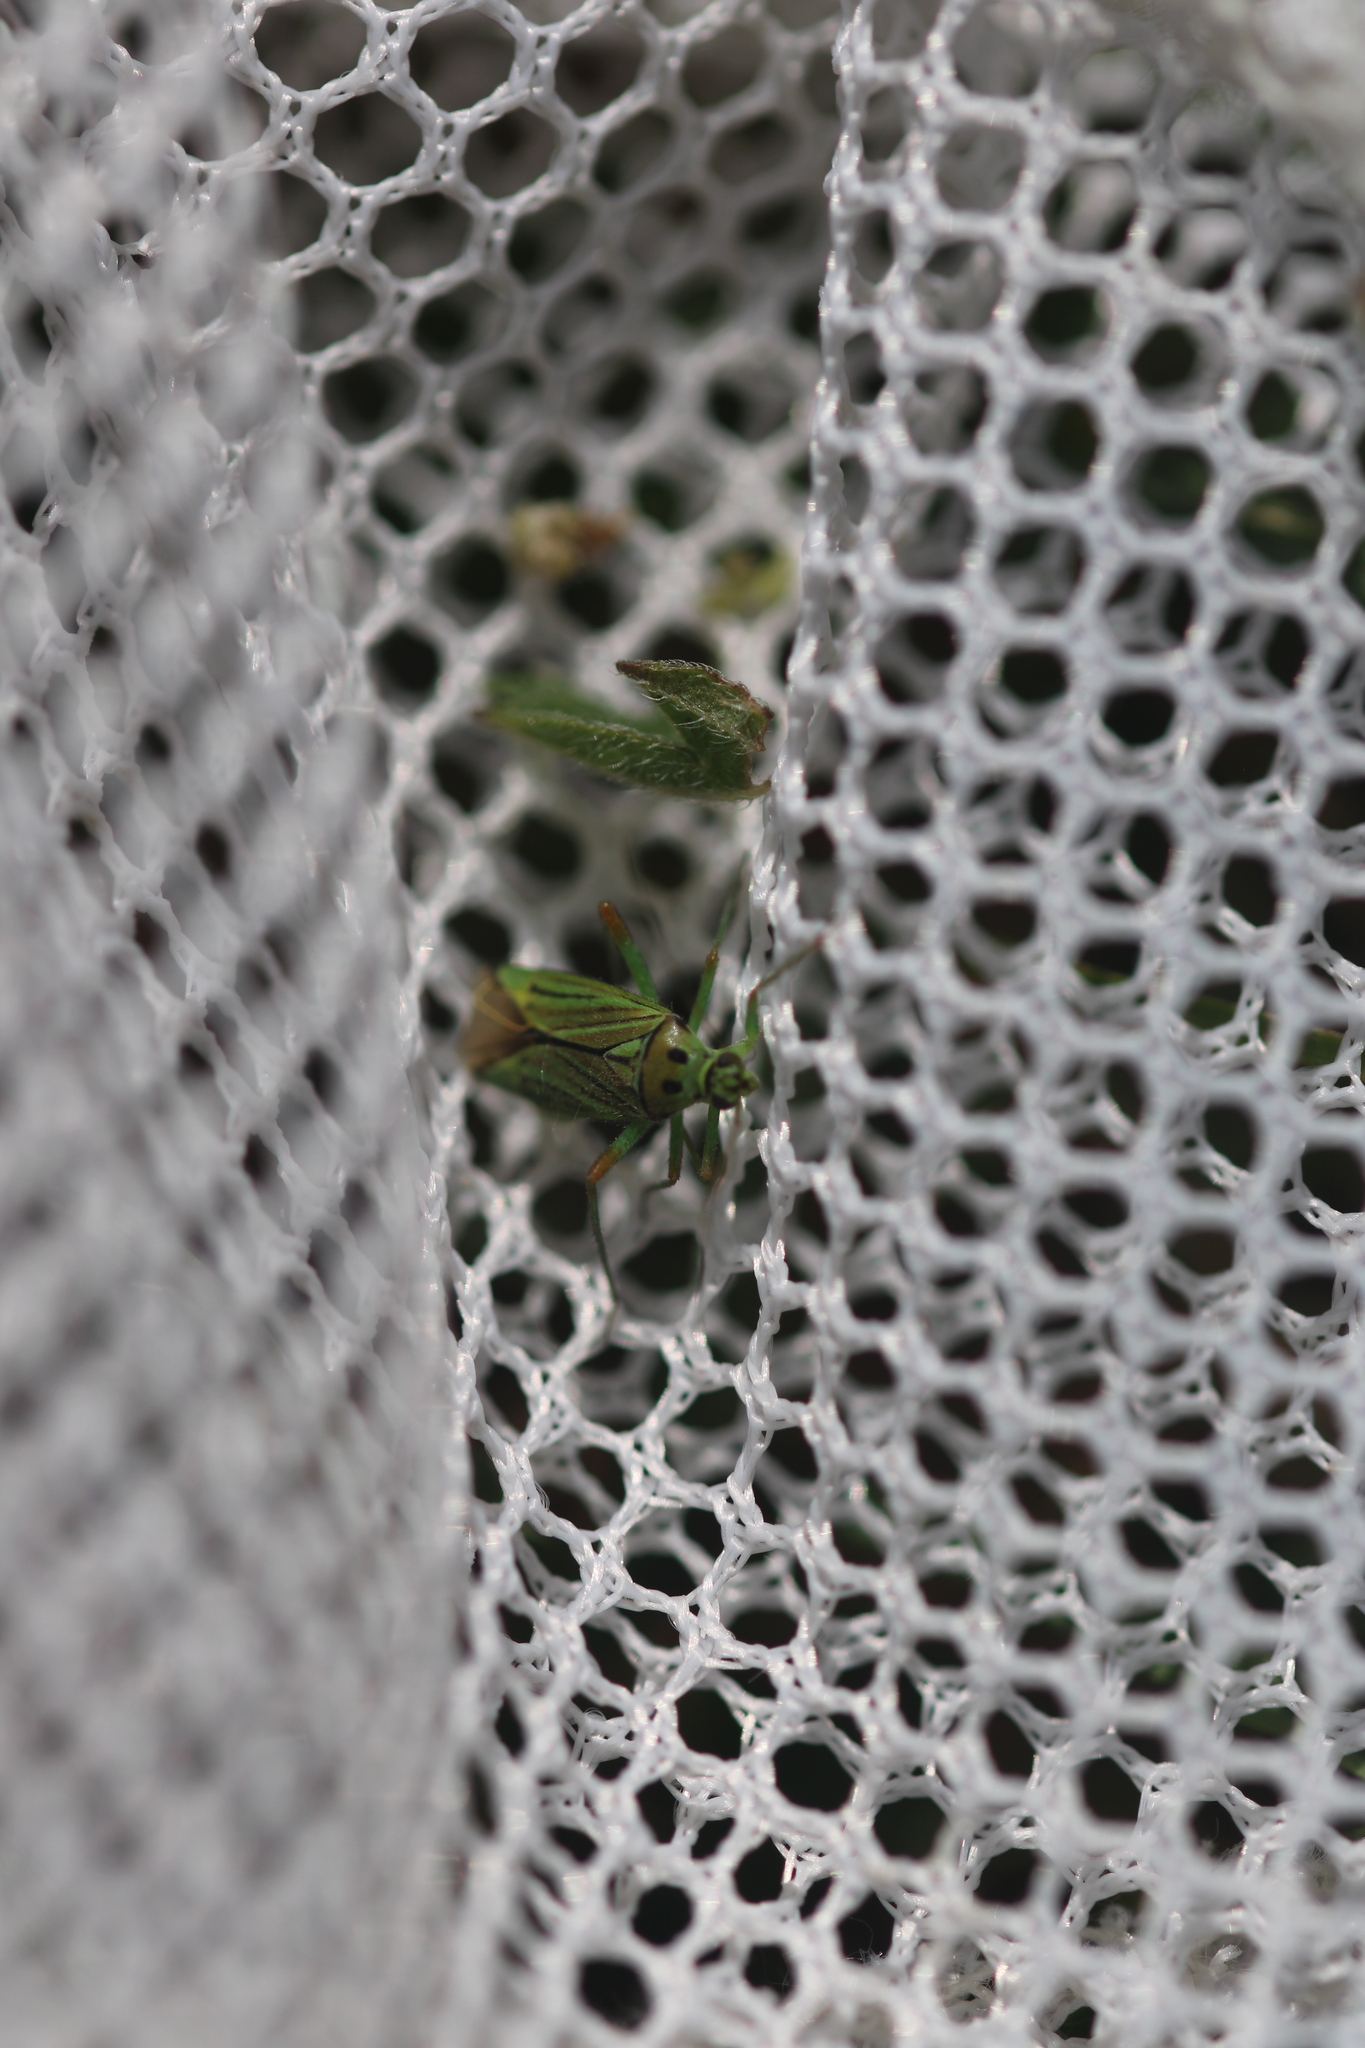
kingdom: Animalia
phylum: Arthropoda
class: Insecta
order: Hemiptera
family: Miridae
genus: Mermitelocerus
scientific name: Mermitelocerus schmidtii
